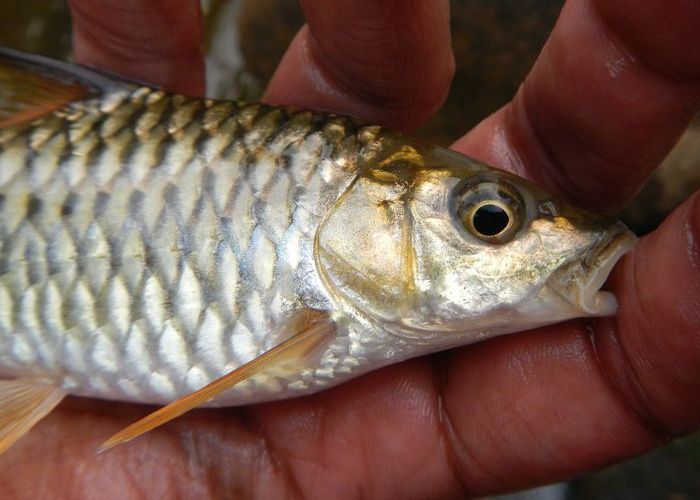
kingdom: Animalia
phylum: Chordata
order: Cypriniformes
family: Cyprinidae
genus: Tor
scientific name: Tor malabaricus
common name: Malabar mahseer
